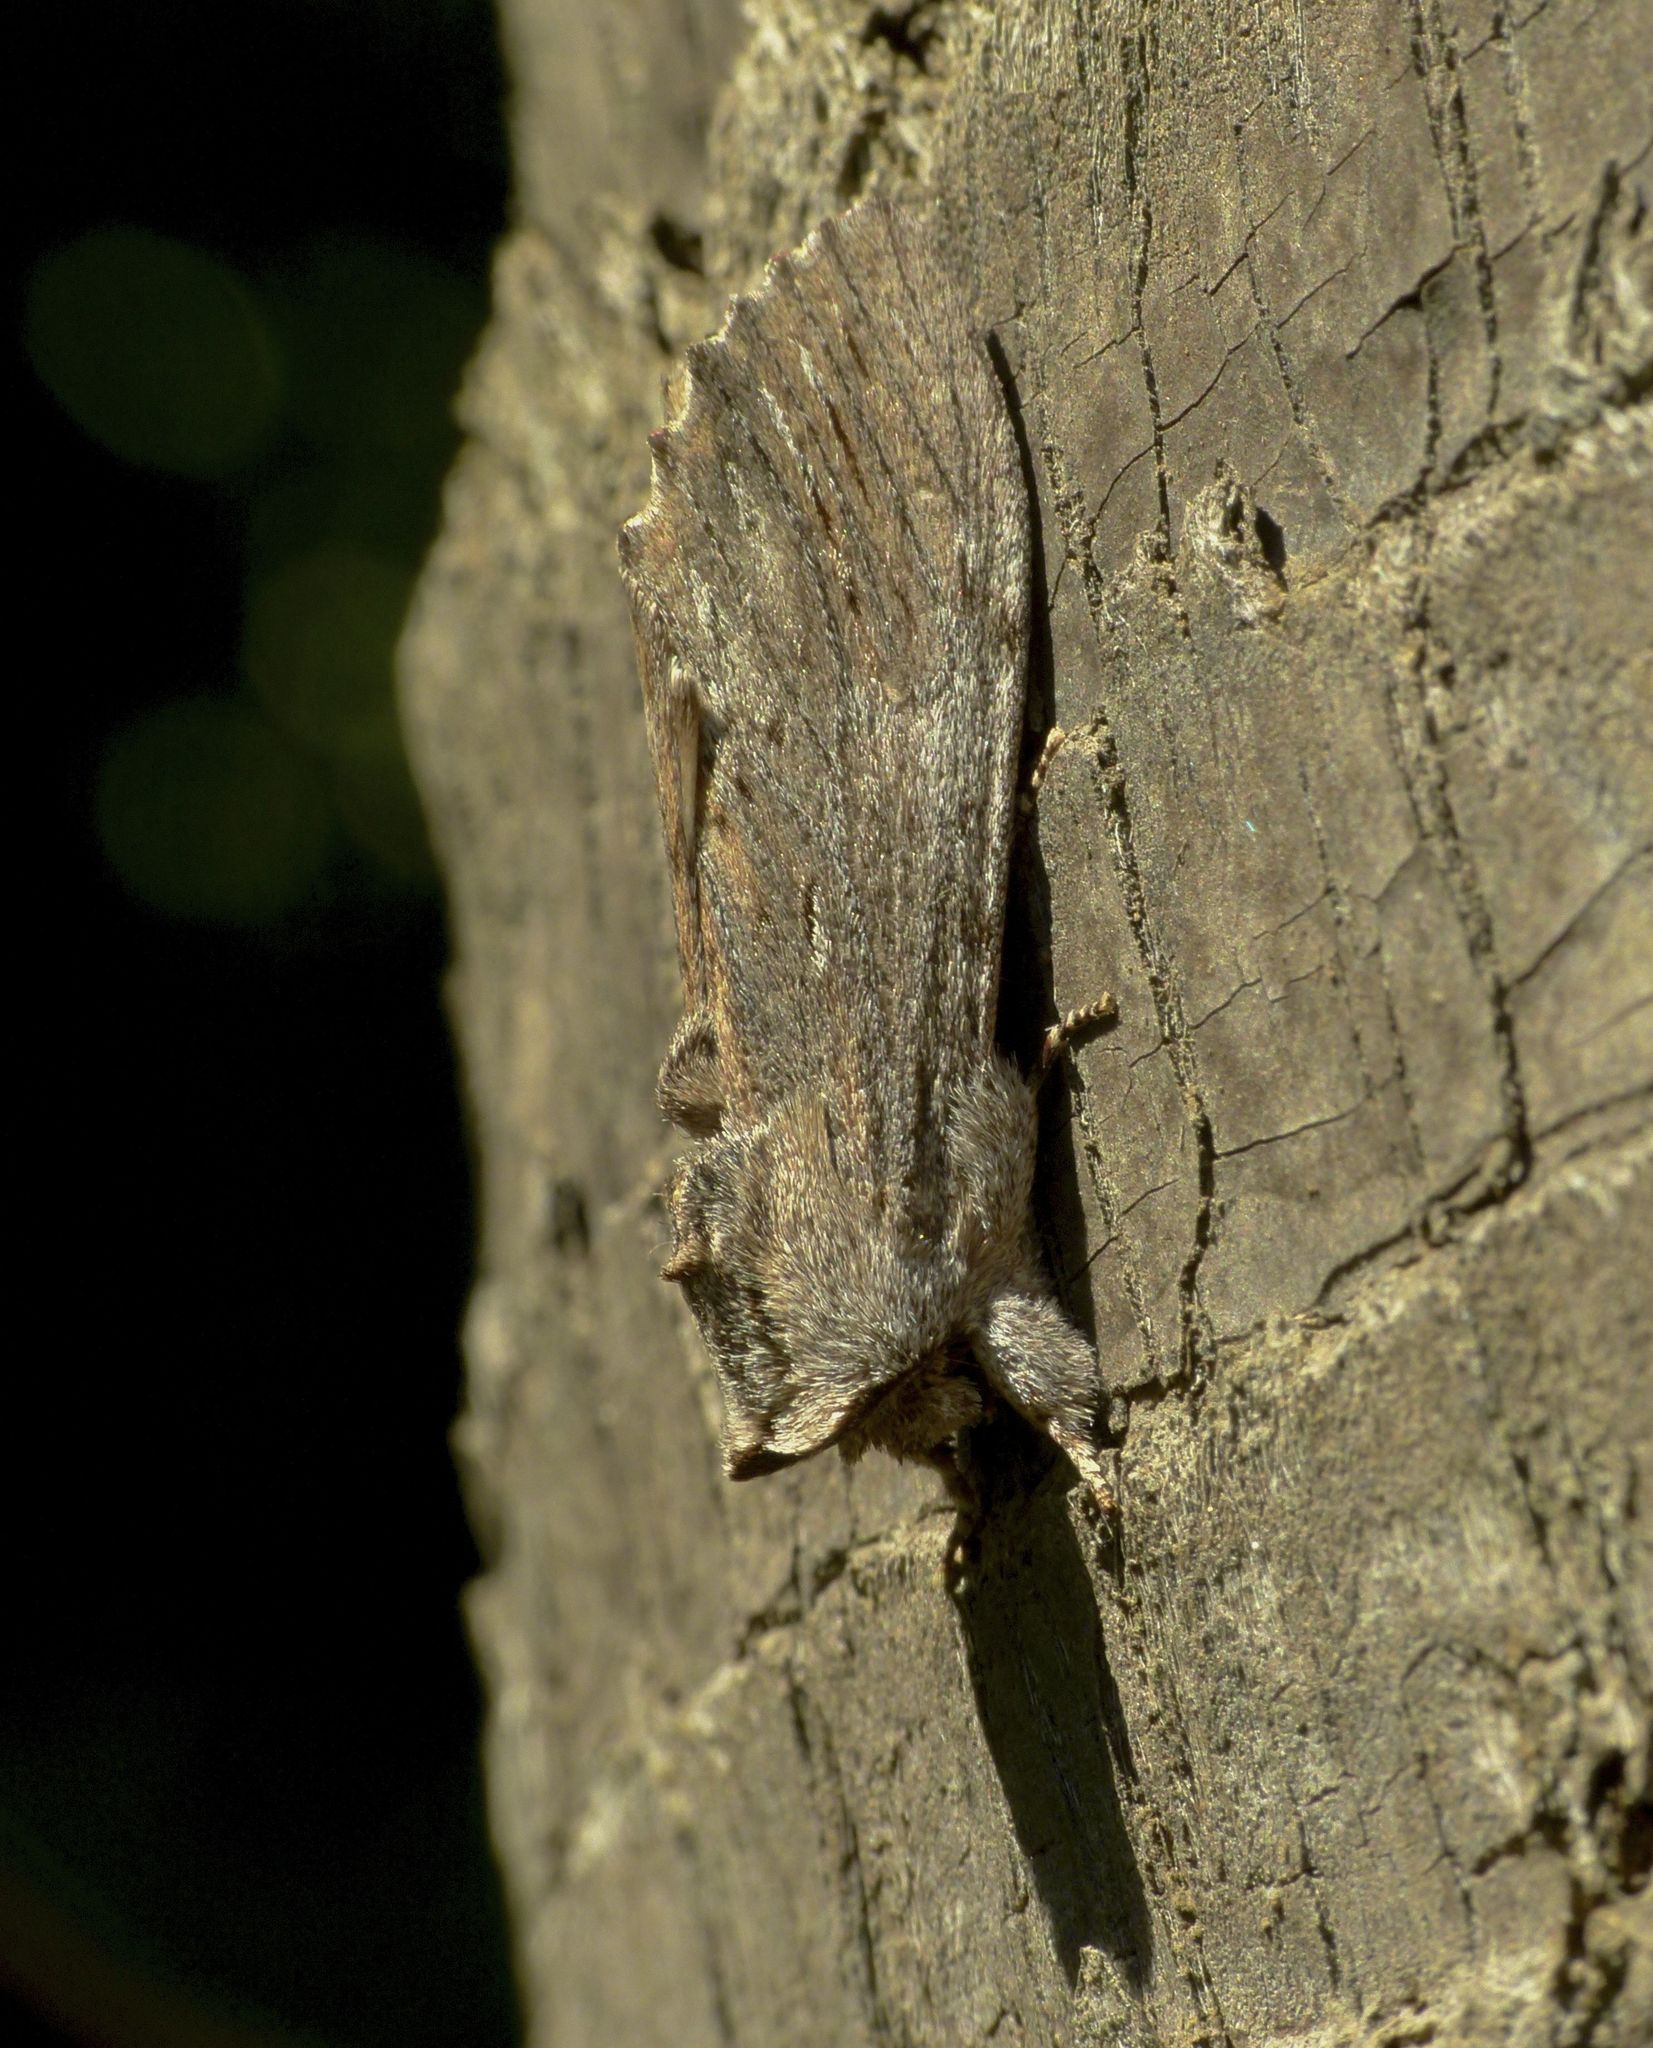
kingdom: Animalia
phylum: Arthropoda
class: Insecta
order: Lepidoptera
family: Notodontidae
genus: Destolmia
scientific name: Destolmia lineata
